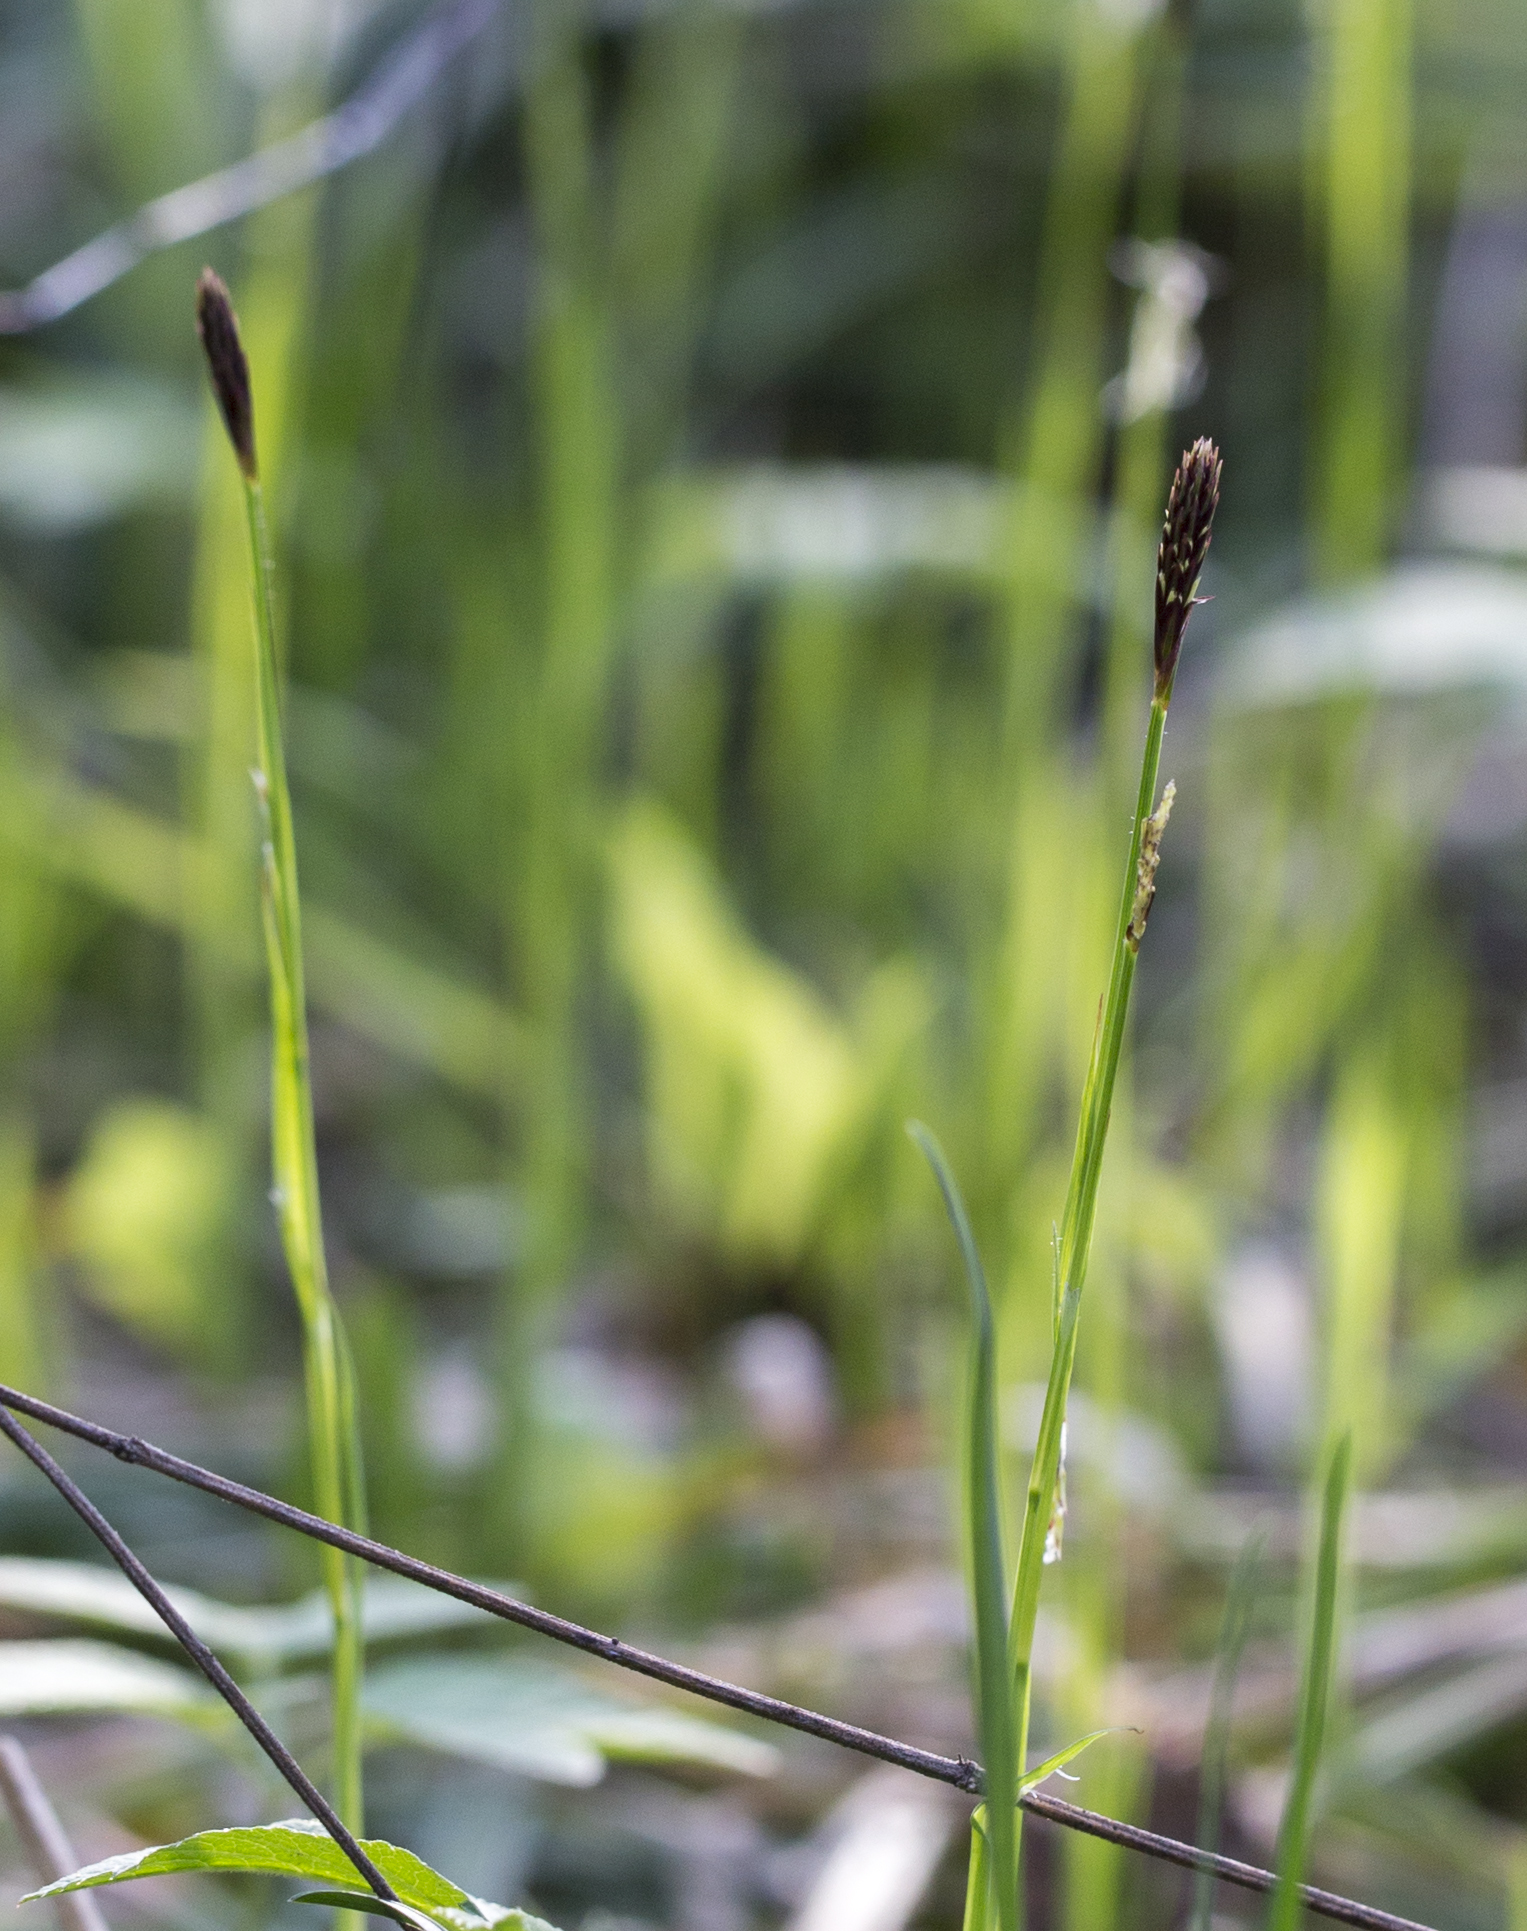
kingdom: Plantae
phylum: Tracheophyta
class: Liliopsida
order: Poales
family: Cyperaceae
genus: Carex
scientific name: Carex pilosa
